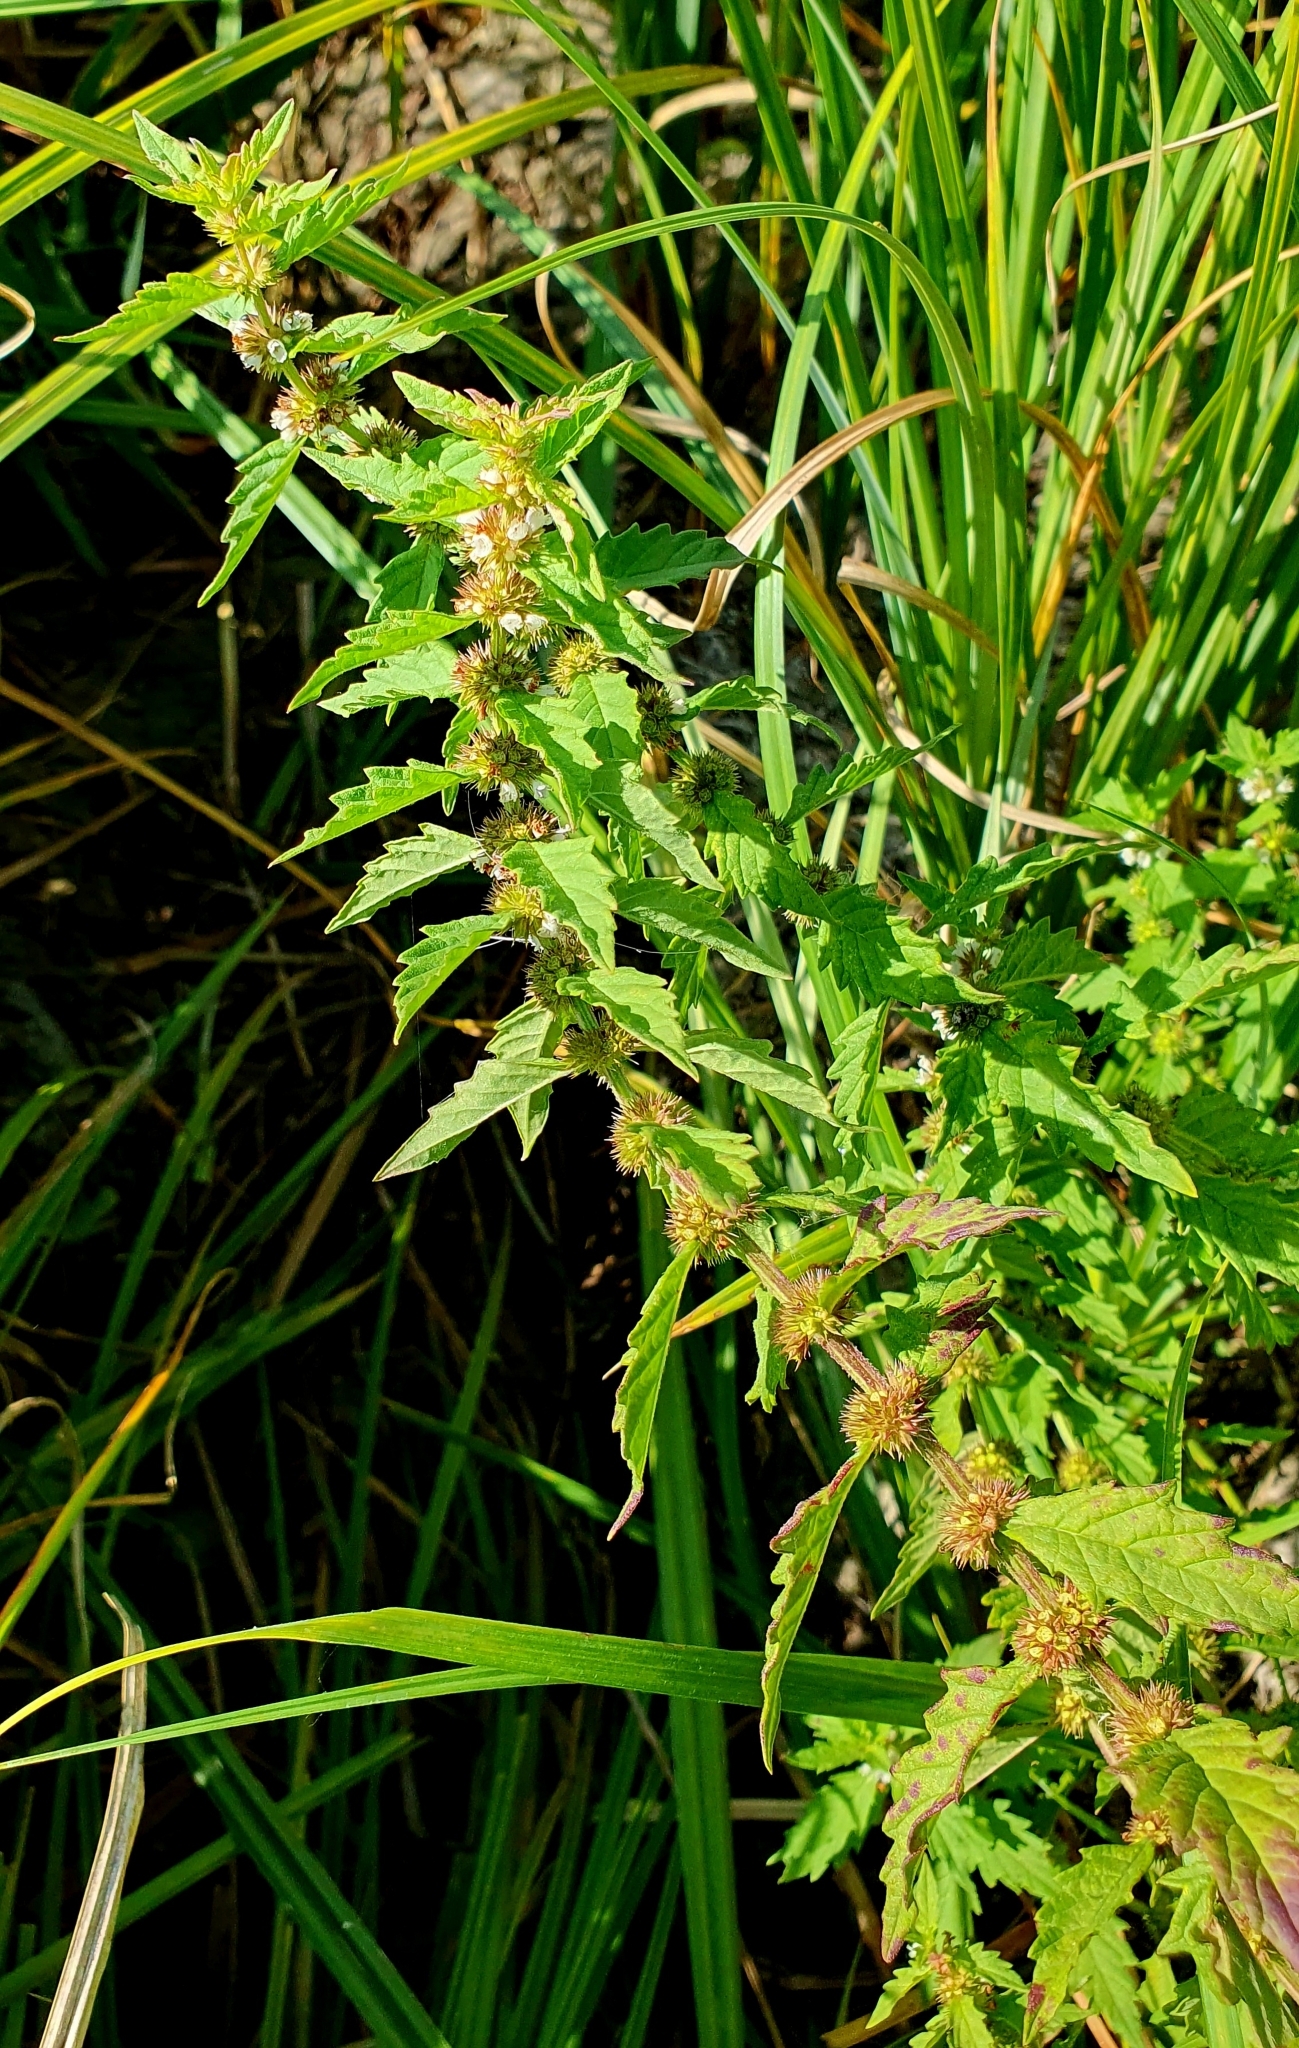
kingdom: Plantae
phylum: Tracheophyta
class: Magnoliopsida
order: Lamiales
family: Lamiaceae
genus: Lycopus
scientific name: Lycopus europaeus
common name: European bugleweed
